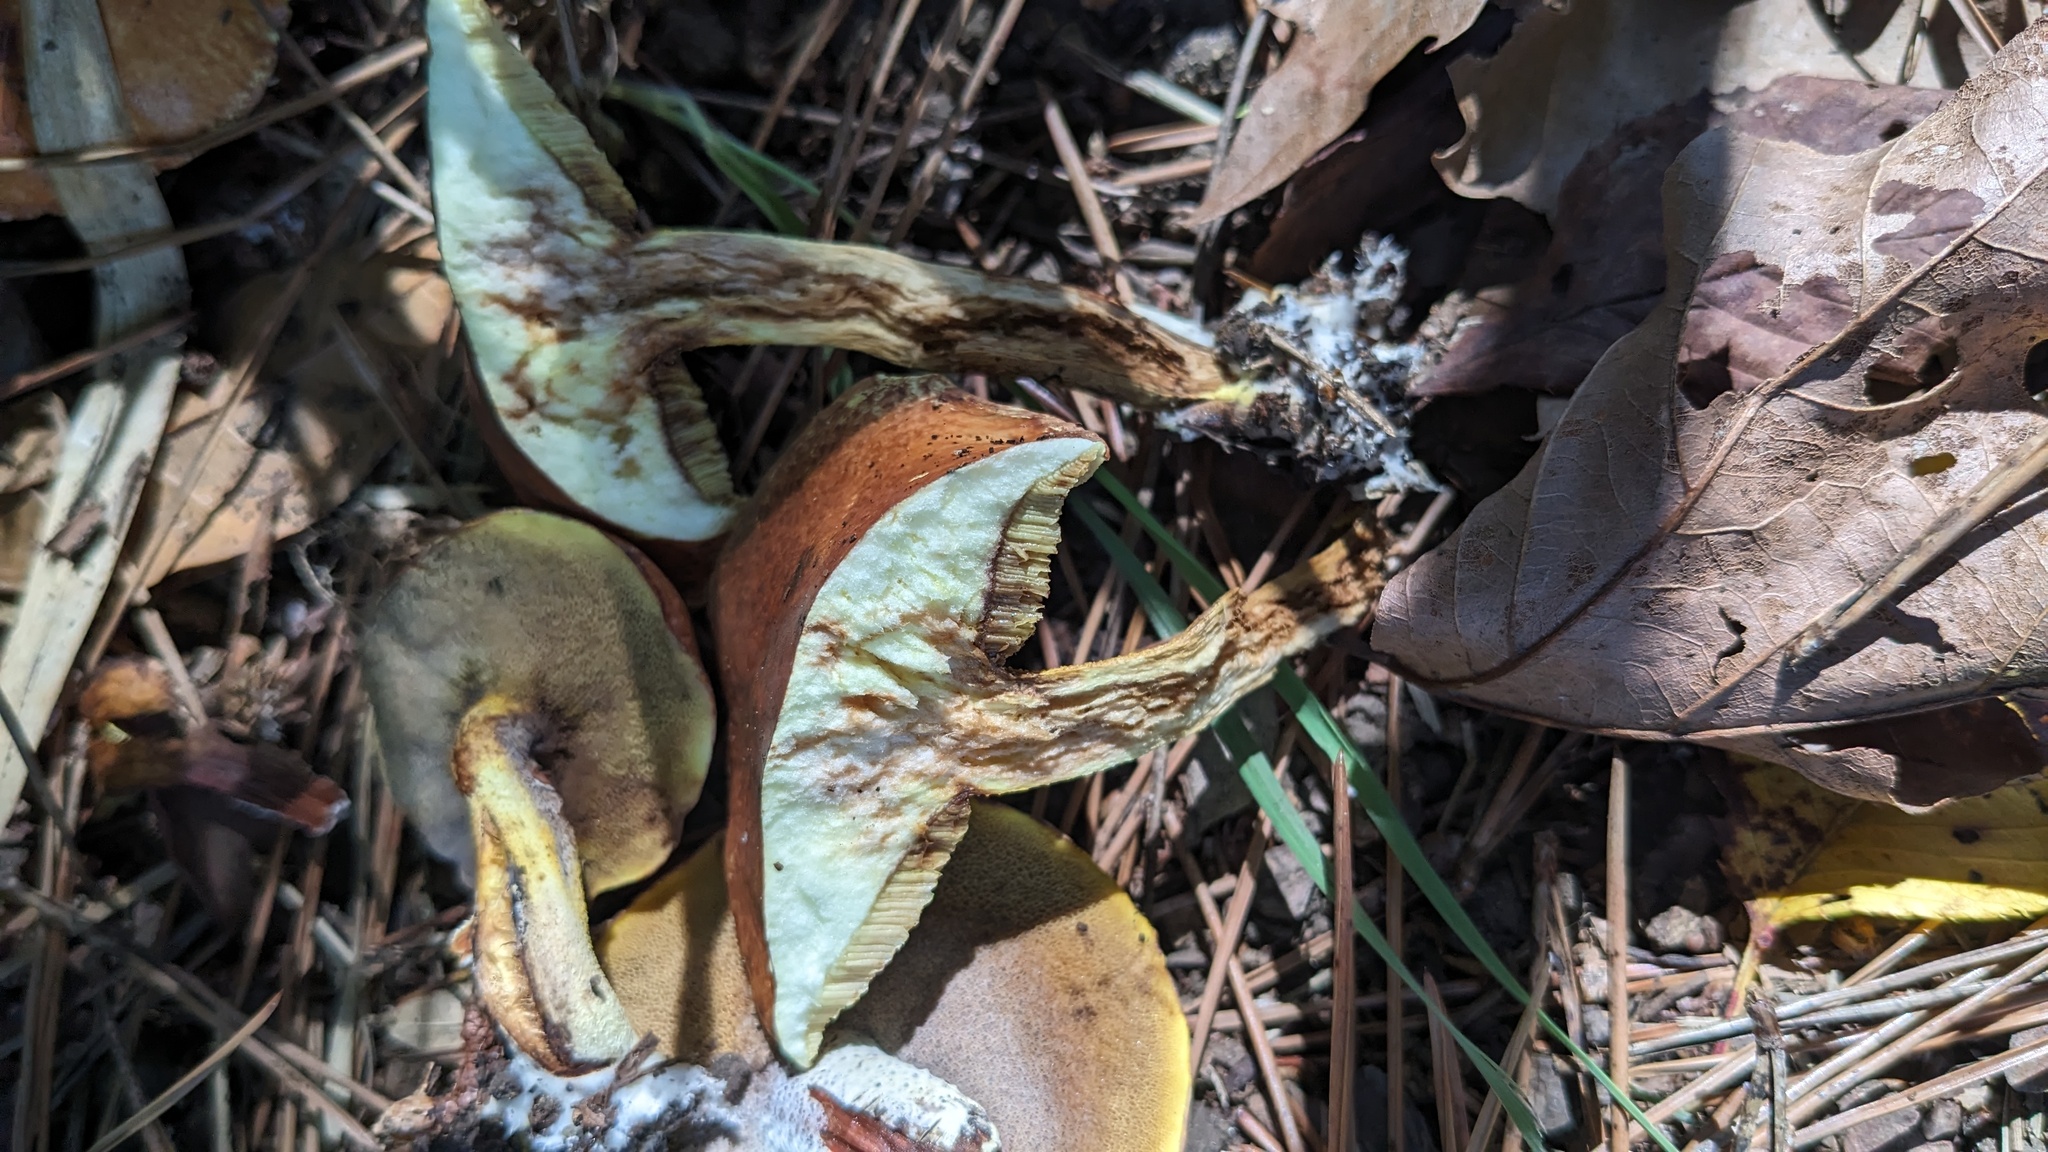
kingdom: Fungi
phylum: Basidiomycota
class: Agaricomycetes
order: Boletales
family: Suillaceae
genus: Suillus
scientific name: Suillus granulatus
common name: Weeping bolete
